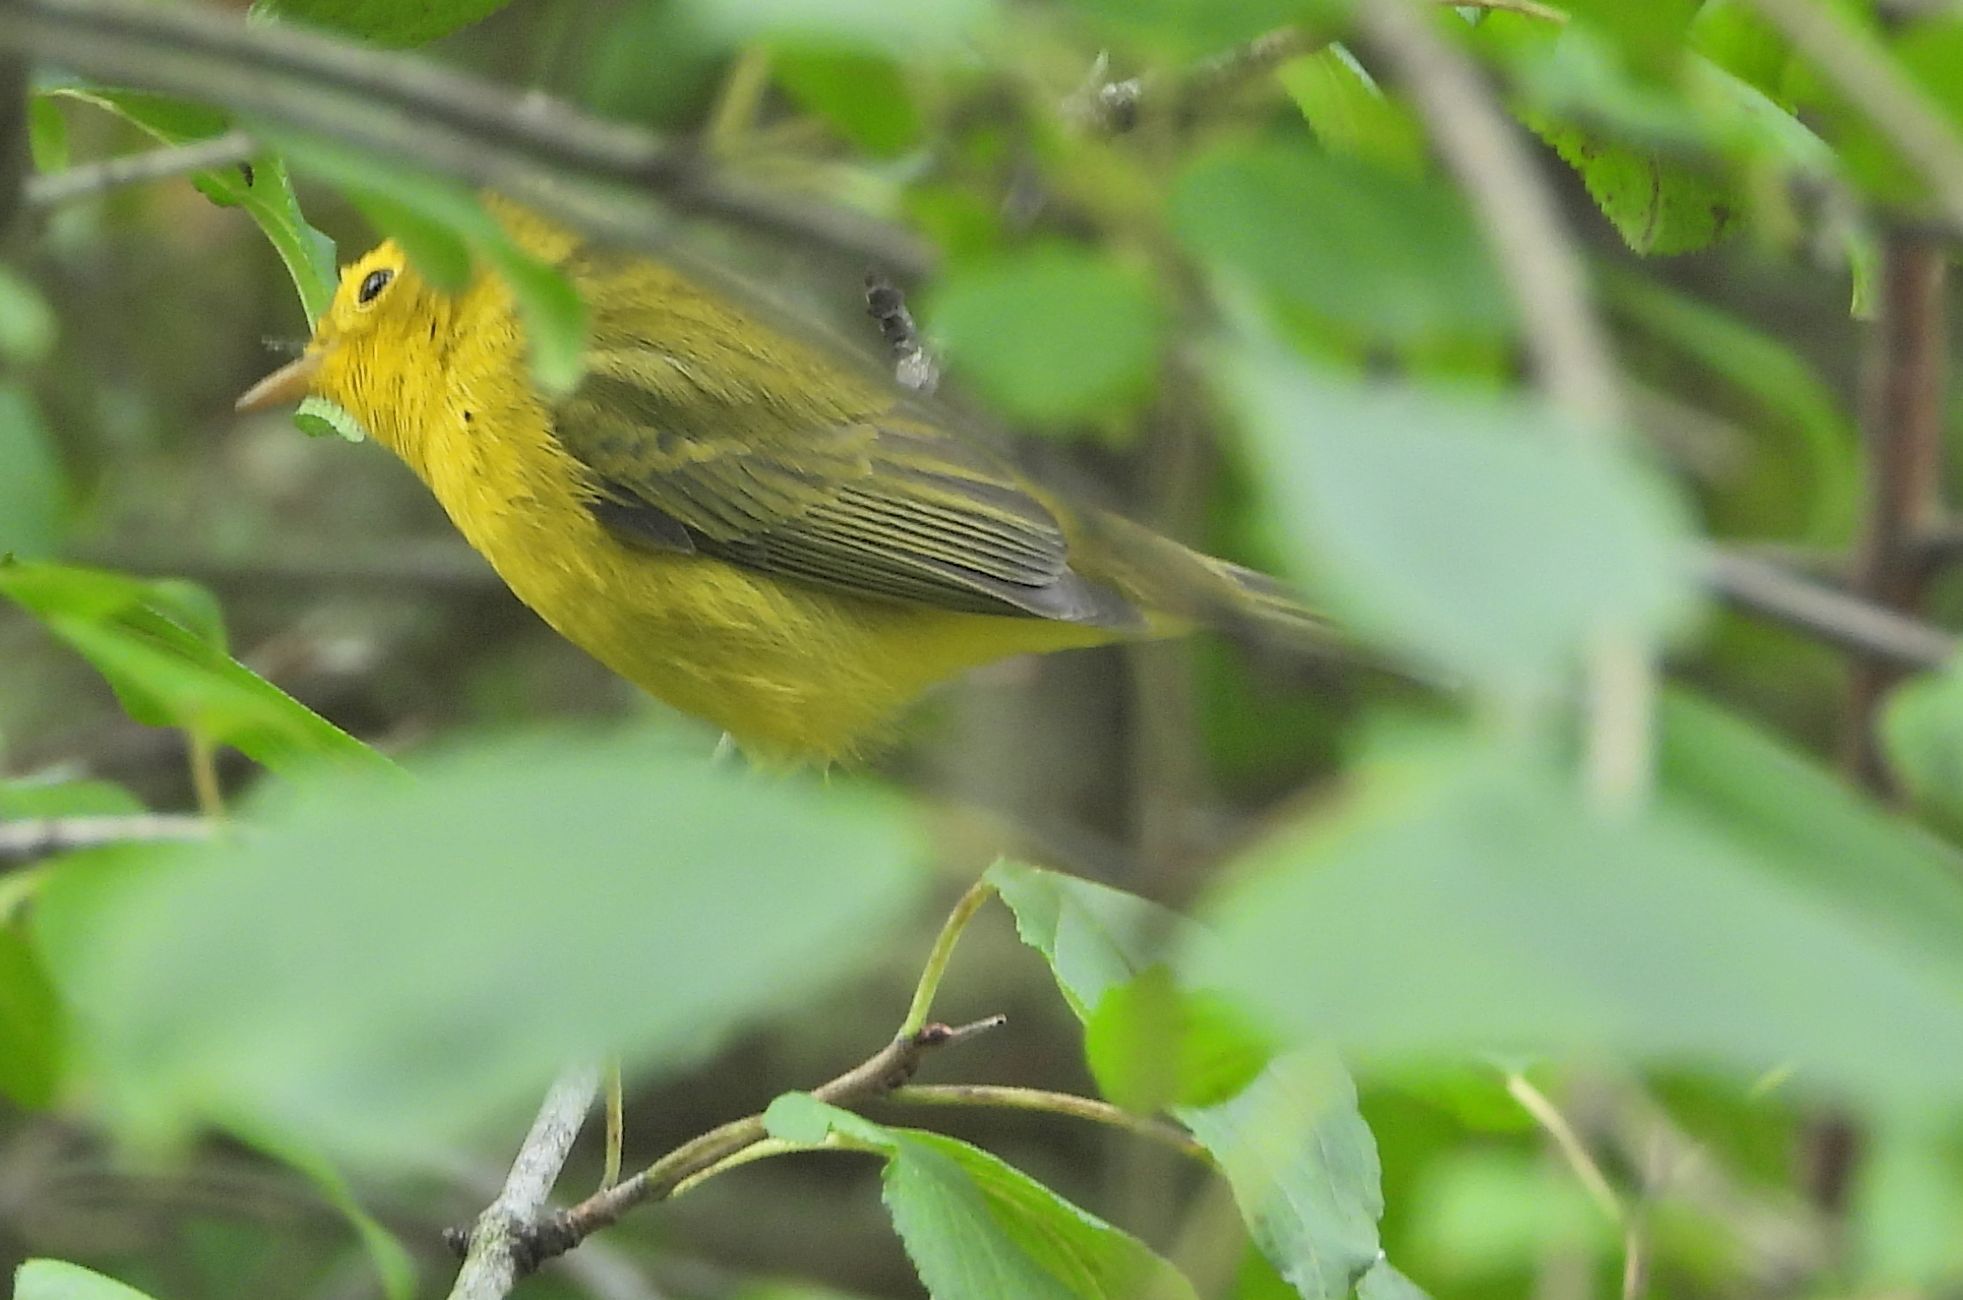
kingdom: Animalia
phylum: Chordata
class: Aves
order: Passeriformes
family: Parulidae
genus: Cardellina
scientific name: Cardellina pusilla
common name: Wilson's warbler
